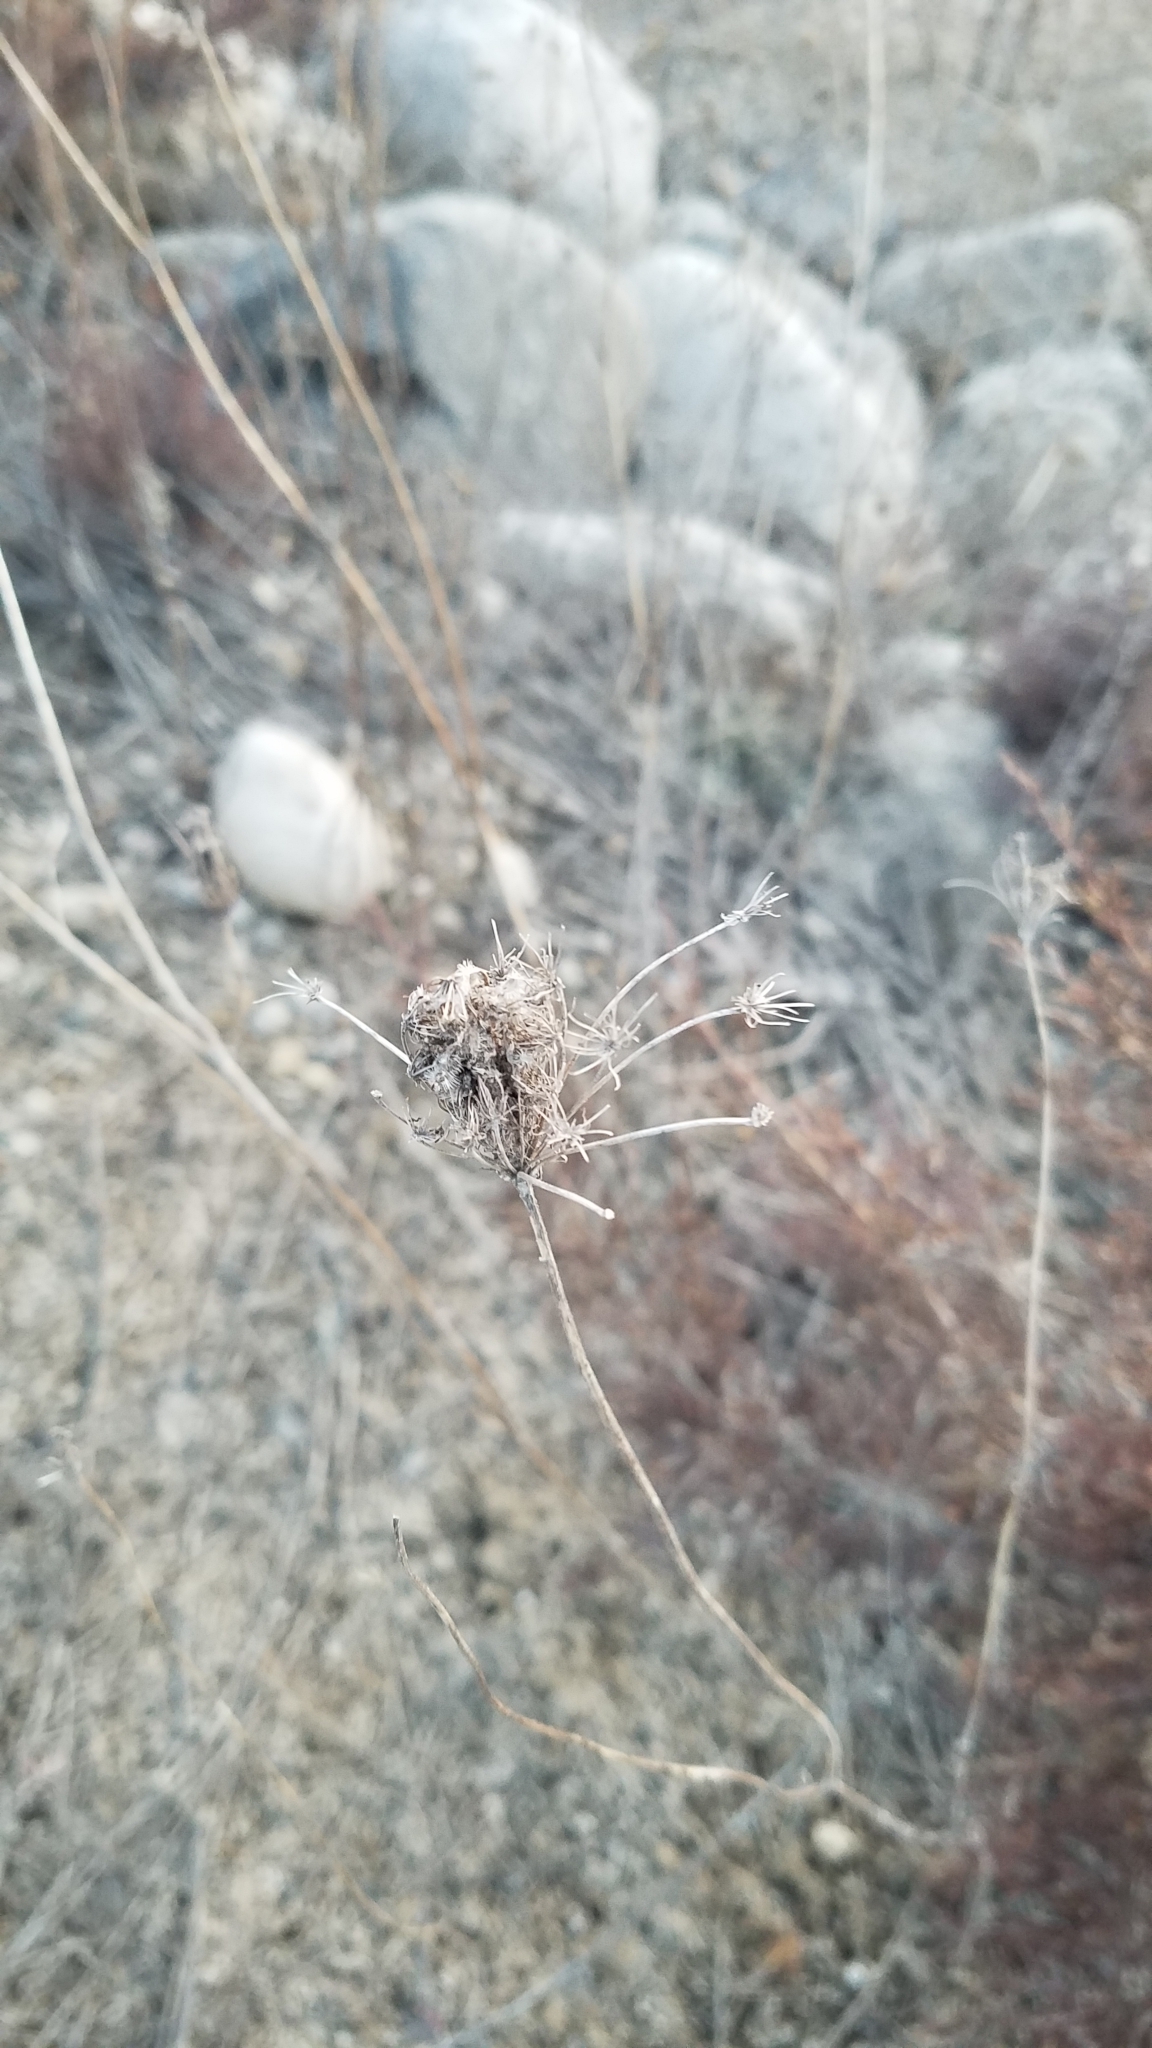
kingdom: Plantae
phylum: Tracheophyta
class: Magnoliopsida
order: Apiales
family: Apiaceae
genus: Daucus
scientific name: Daucus carota
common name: Wild carrot
